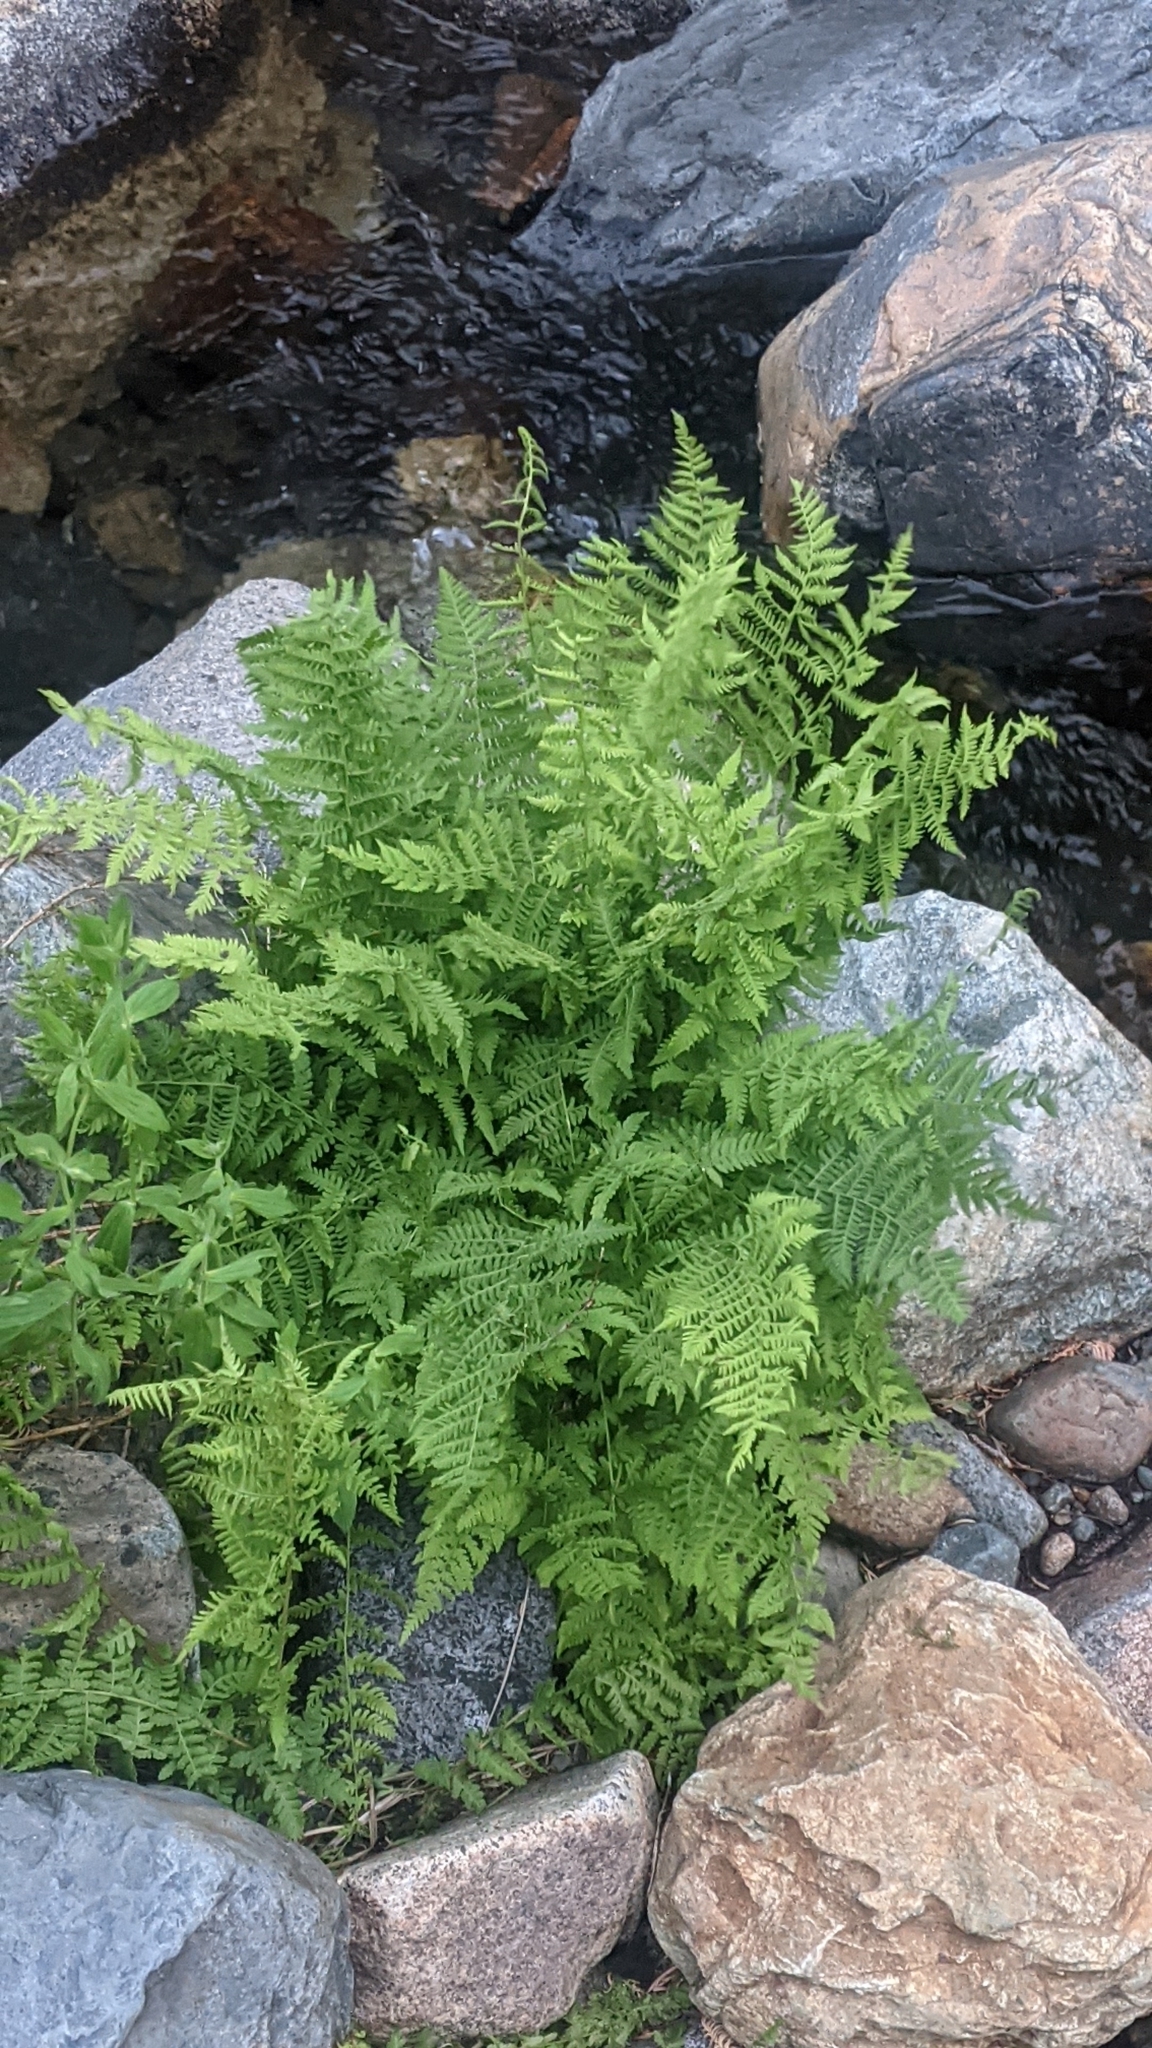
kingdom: Plantae
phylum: Tracheophyta
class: Polypodiopsida
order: Polypodiales
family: Athyriaceae
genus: Athyrium
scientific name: Athyrium americanum
